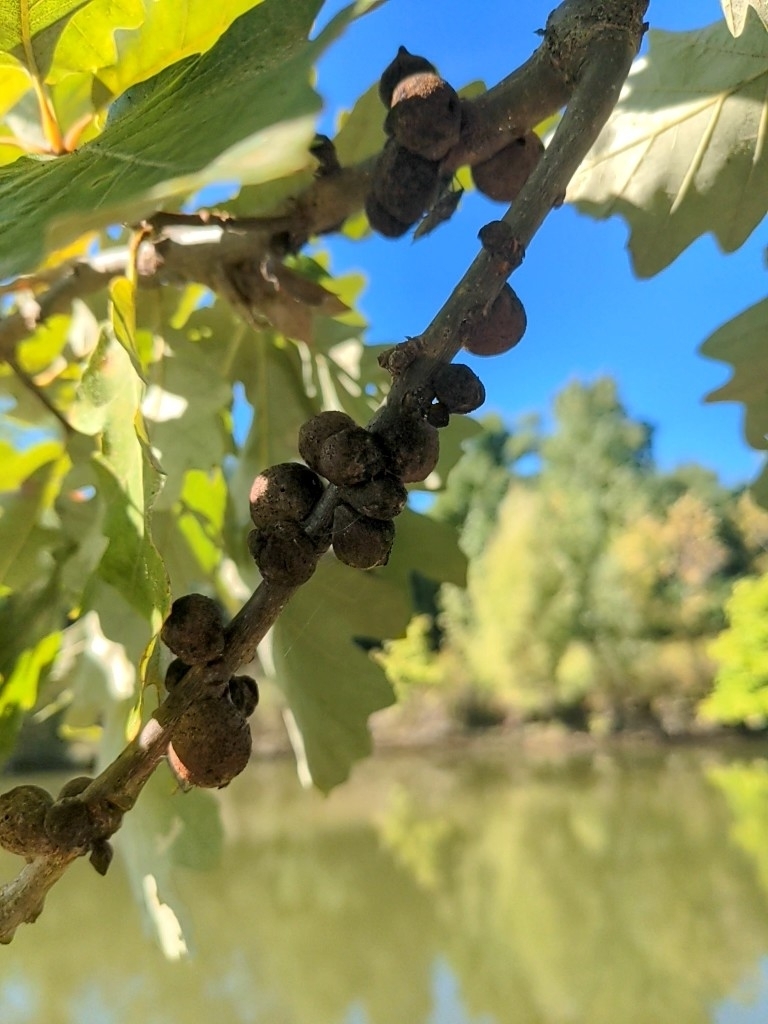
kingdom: Animalia
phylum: Arthropoda
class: Insecta
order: Hymenoptera
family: Cynipidae
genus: Disholcaspis
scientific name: Disholcaspis
